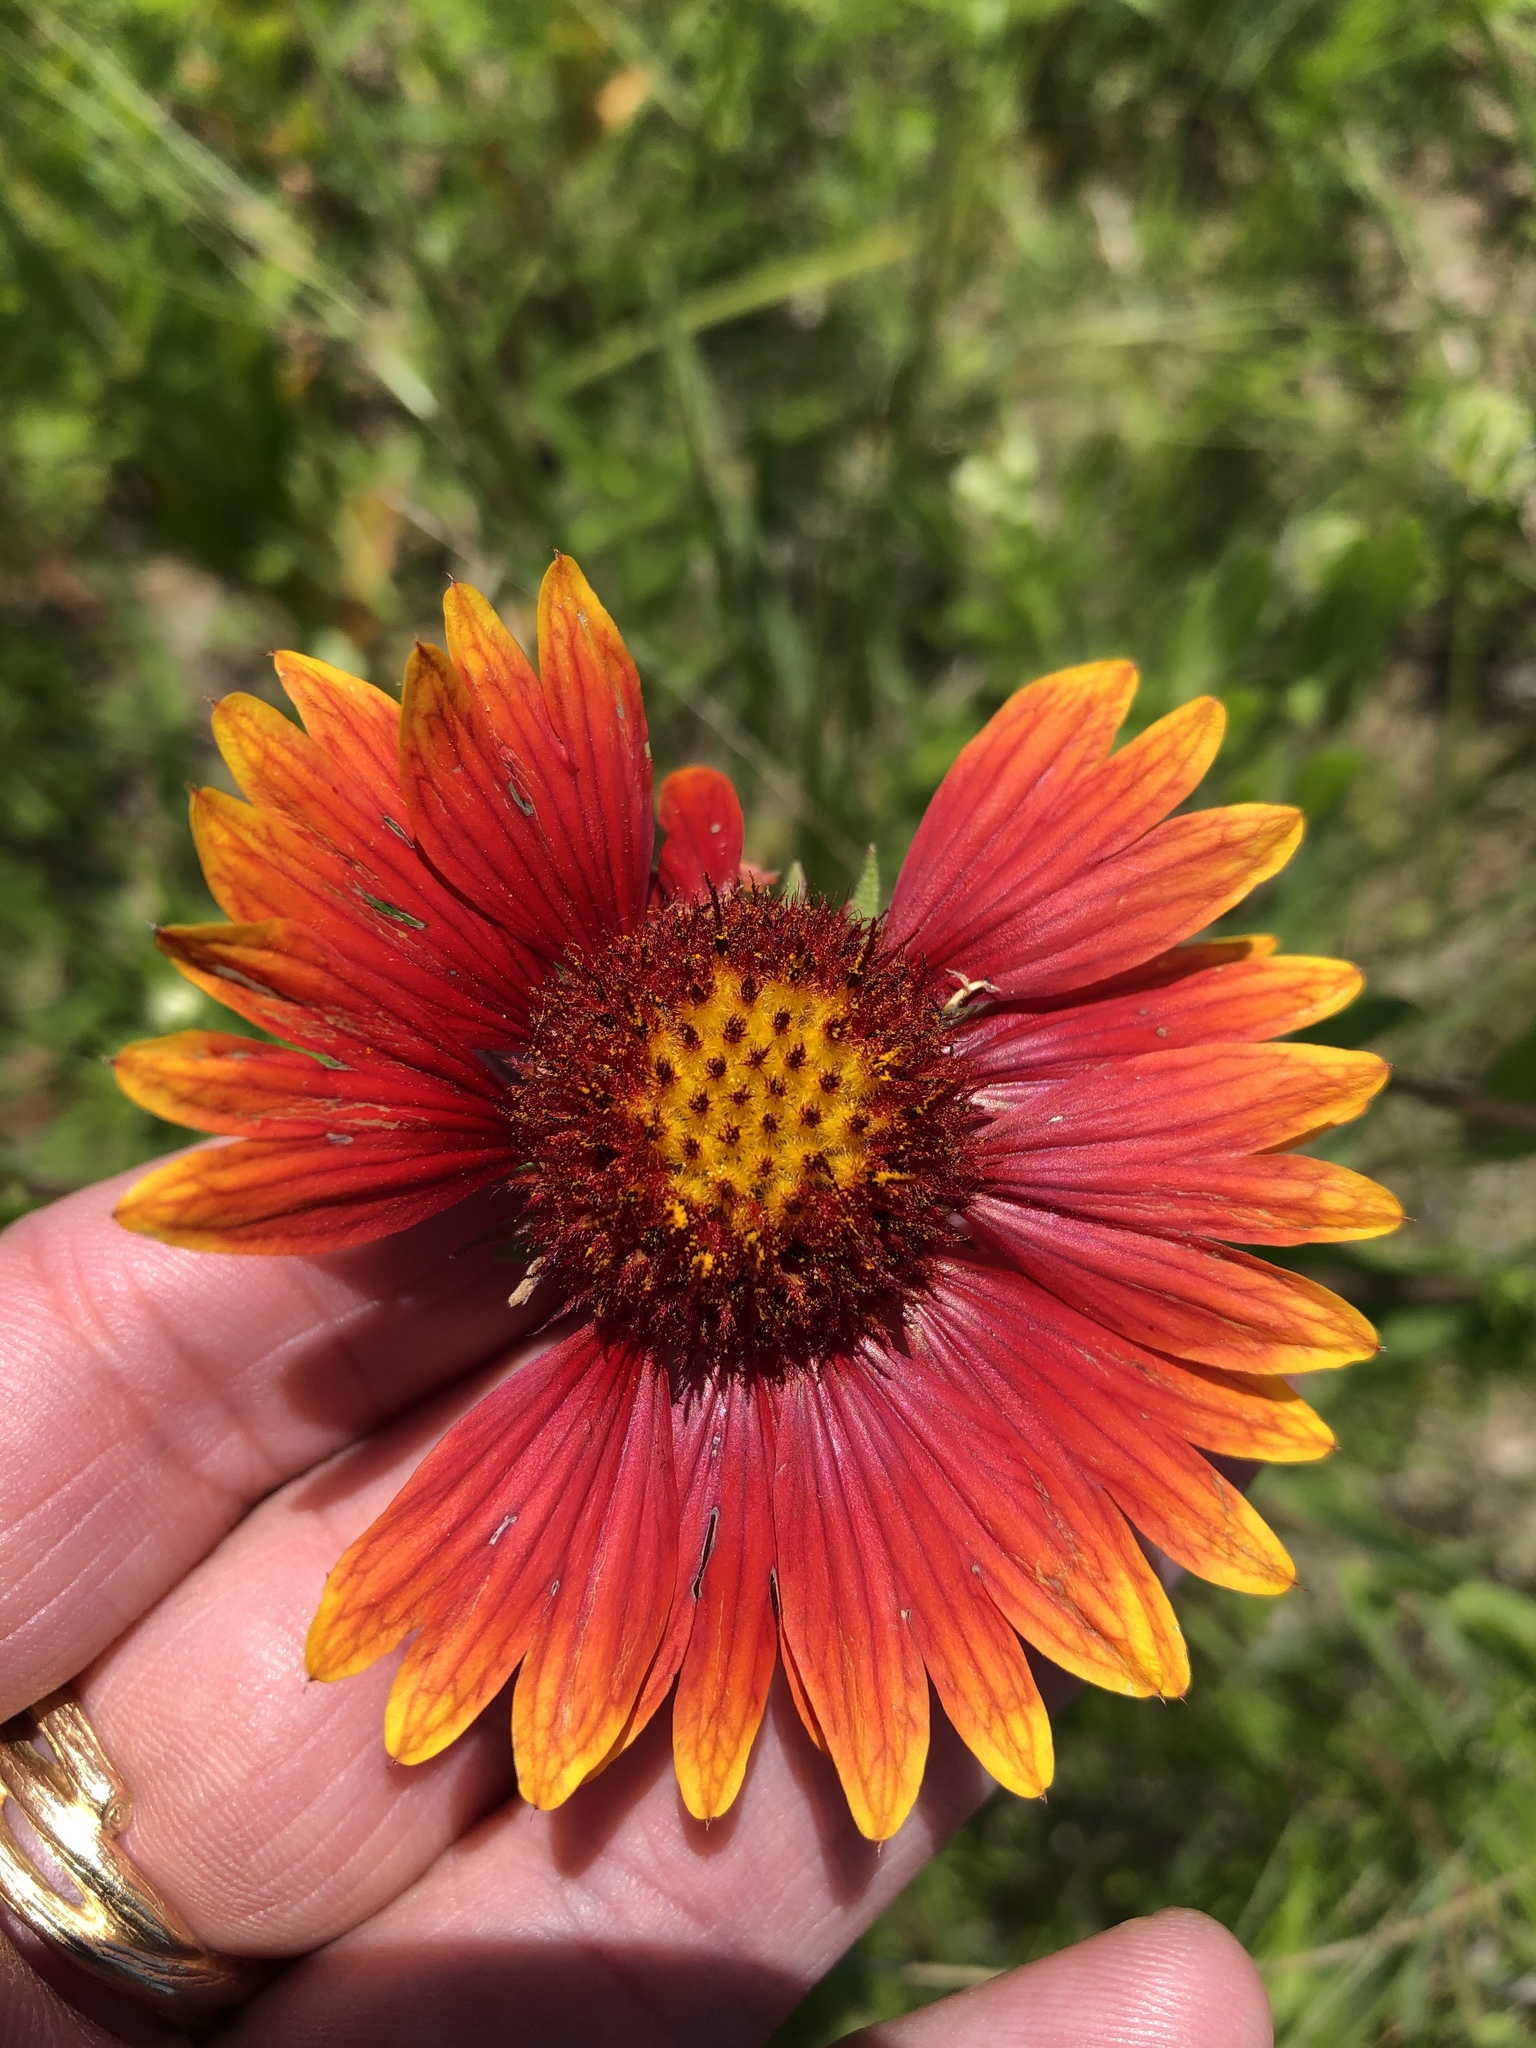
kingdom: Plantae
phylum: Tracheophyta
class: Magnoliopsida
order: Asterales
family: Asteraceae
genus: Gaillardia
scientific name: Gaillardia pulchella
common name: Firewheel
